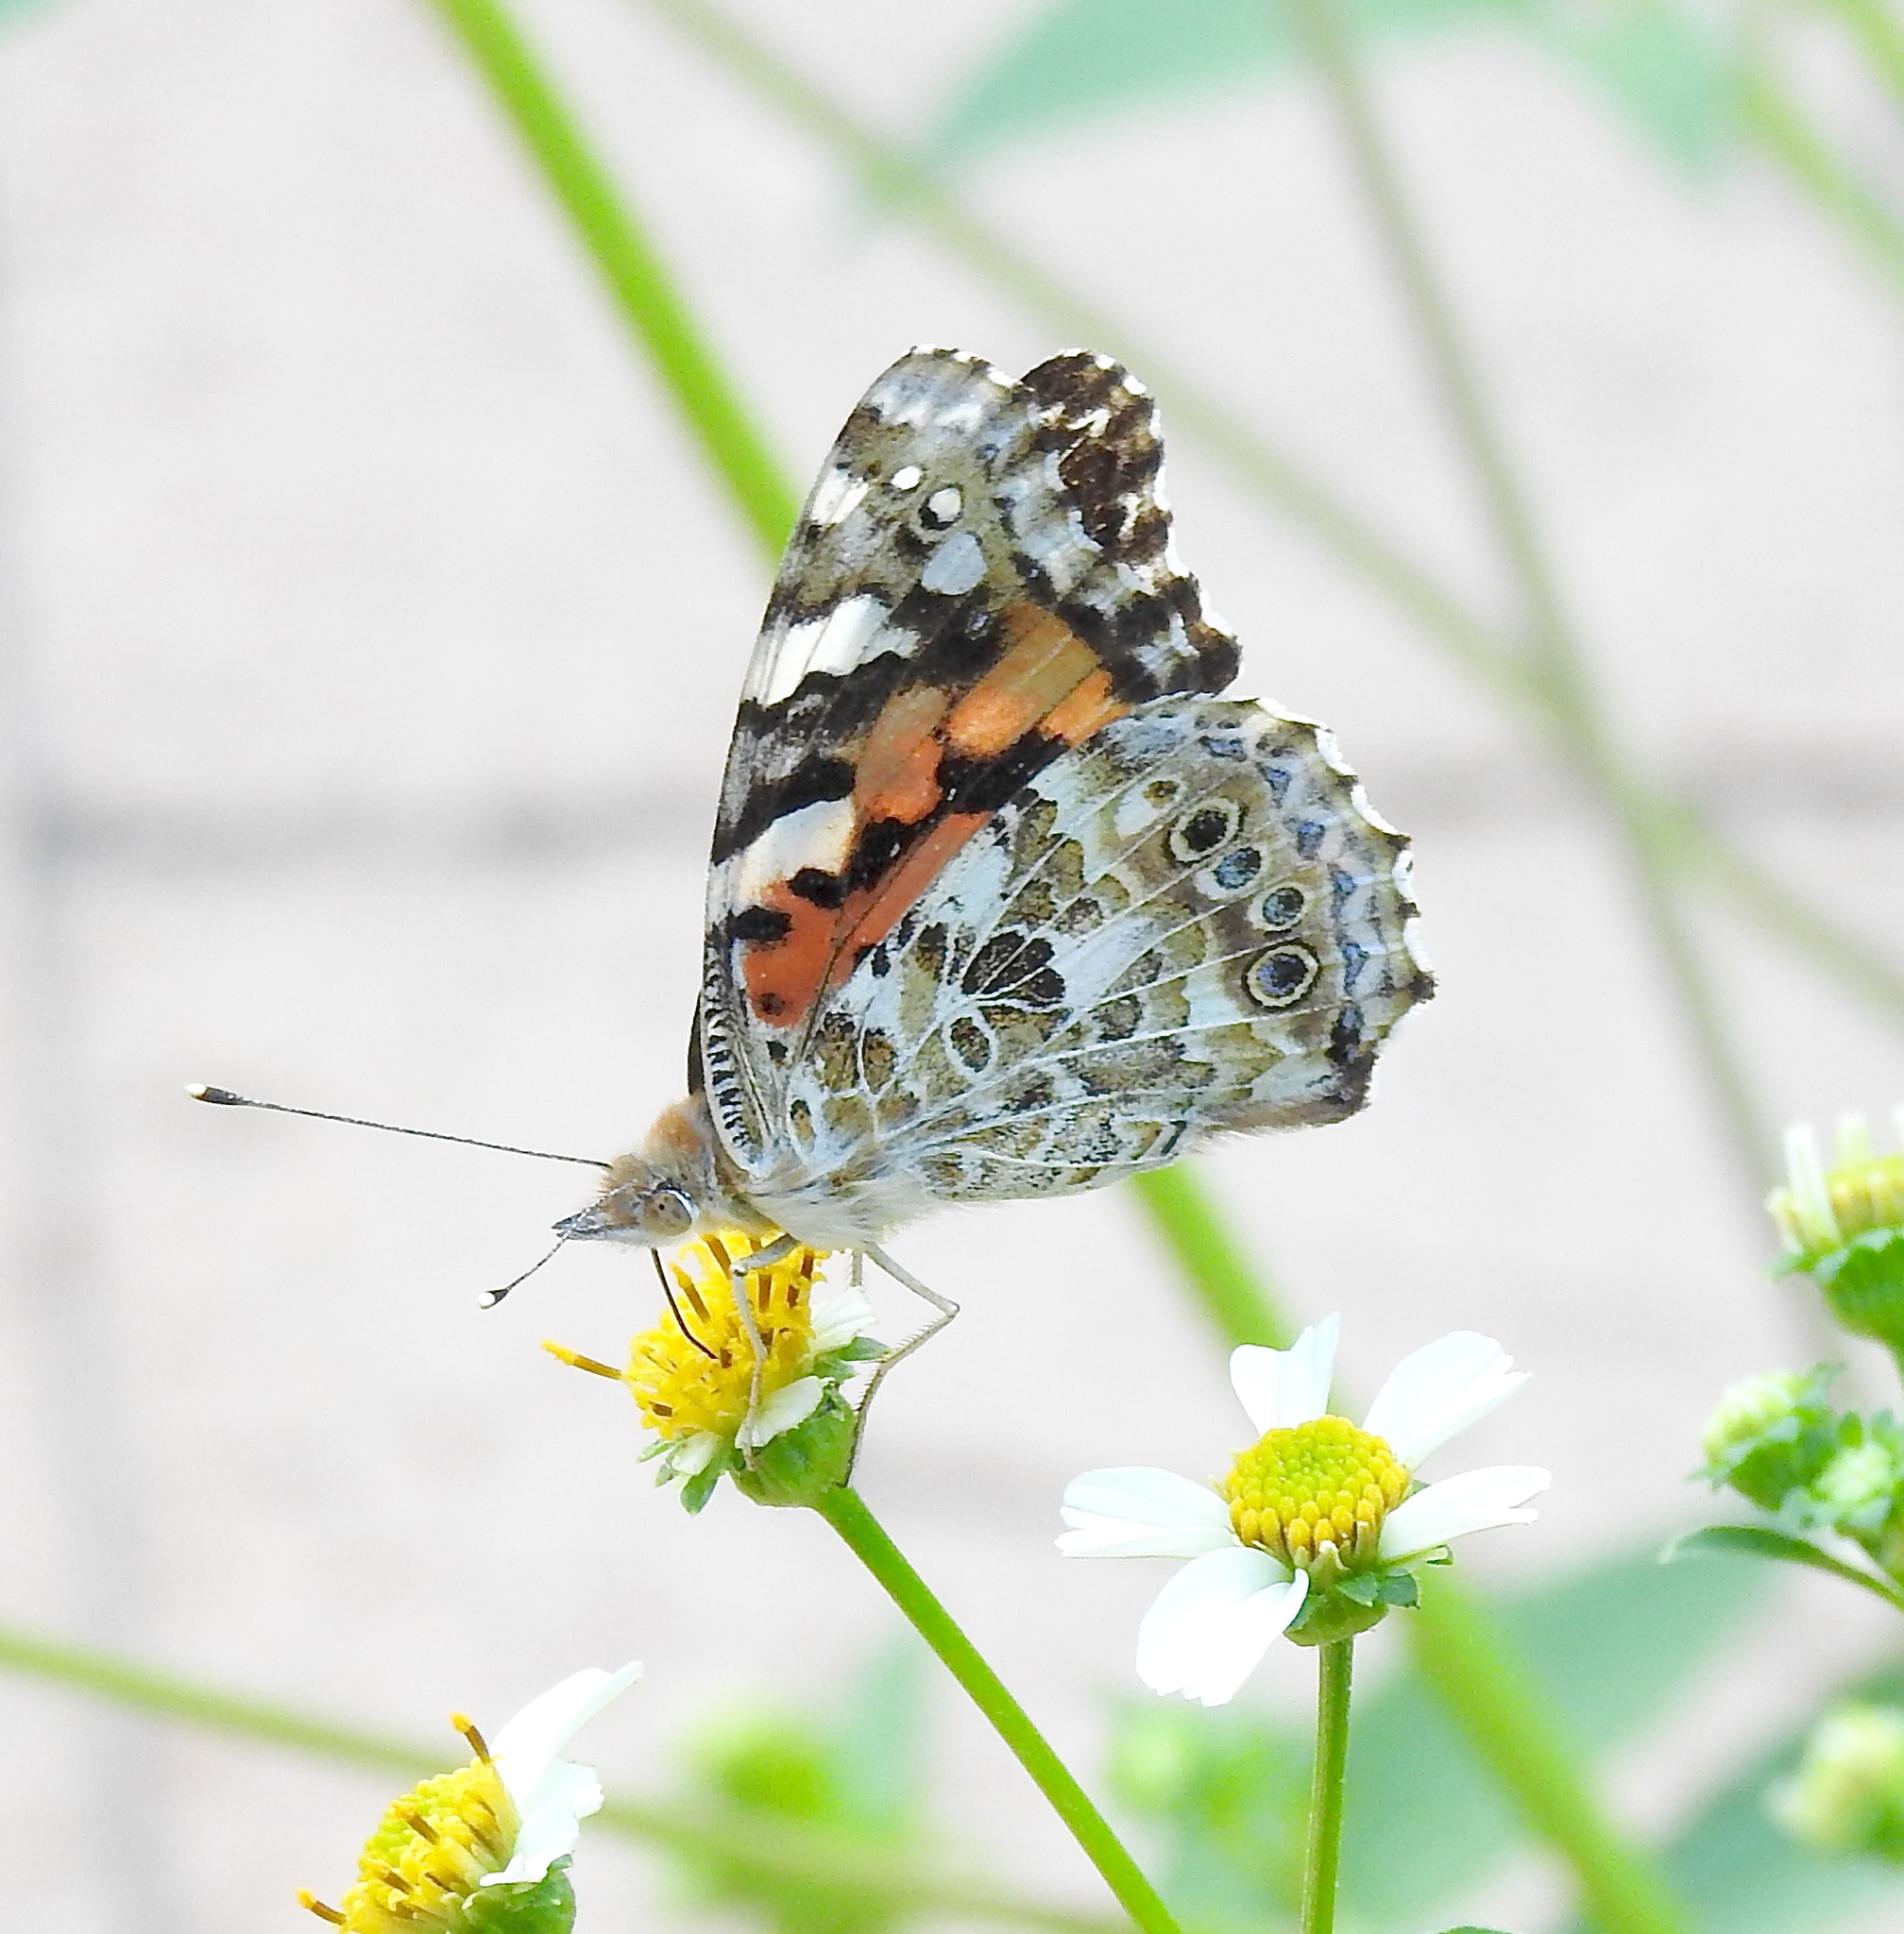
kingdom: Animalia
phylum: Arthropoda
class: Insecta
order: Lepidoptera
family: Nymphalidae
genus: Vanessa
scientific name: Vanessa cardui
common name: Painted lady
